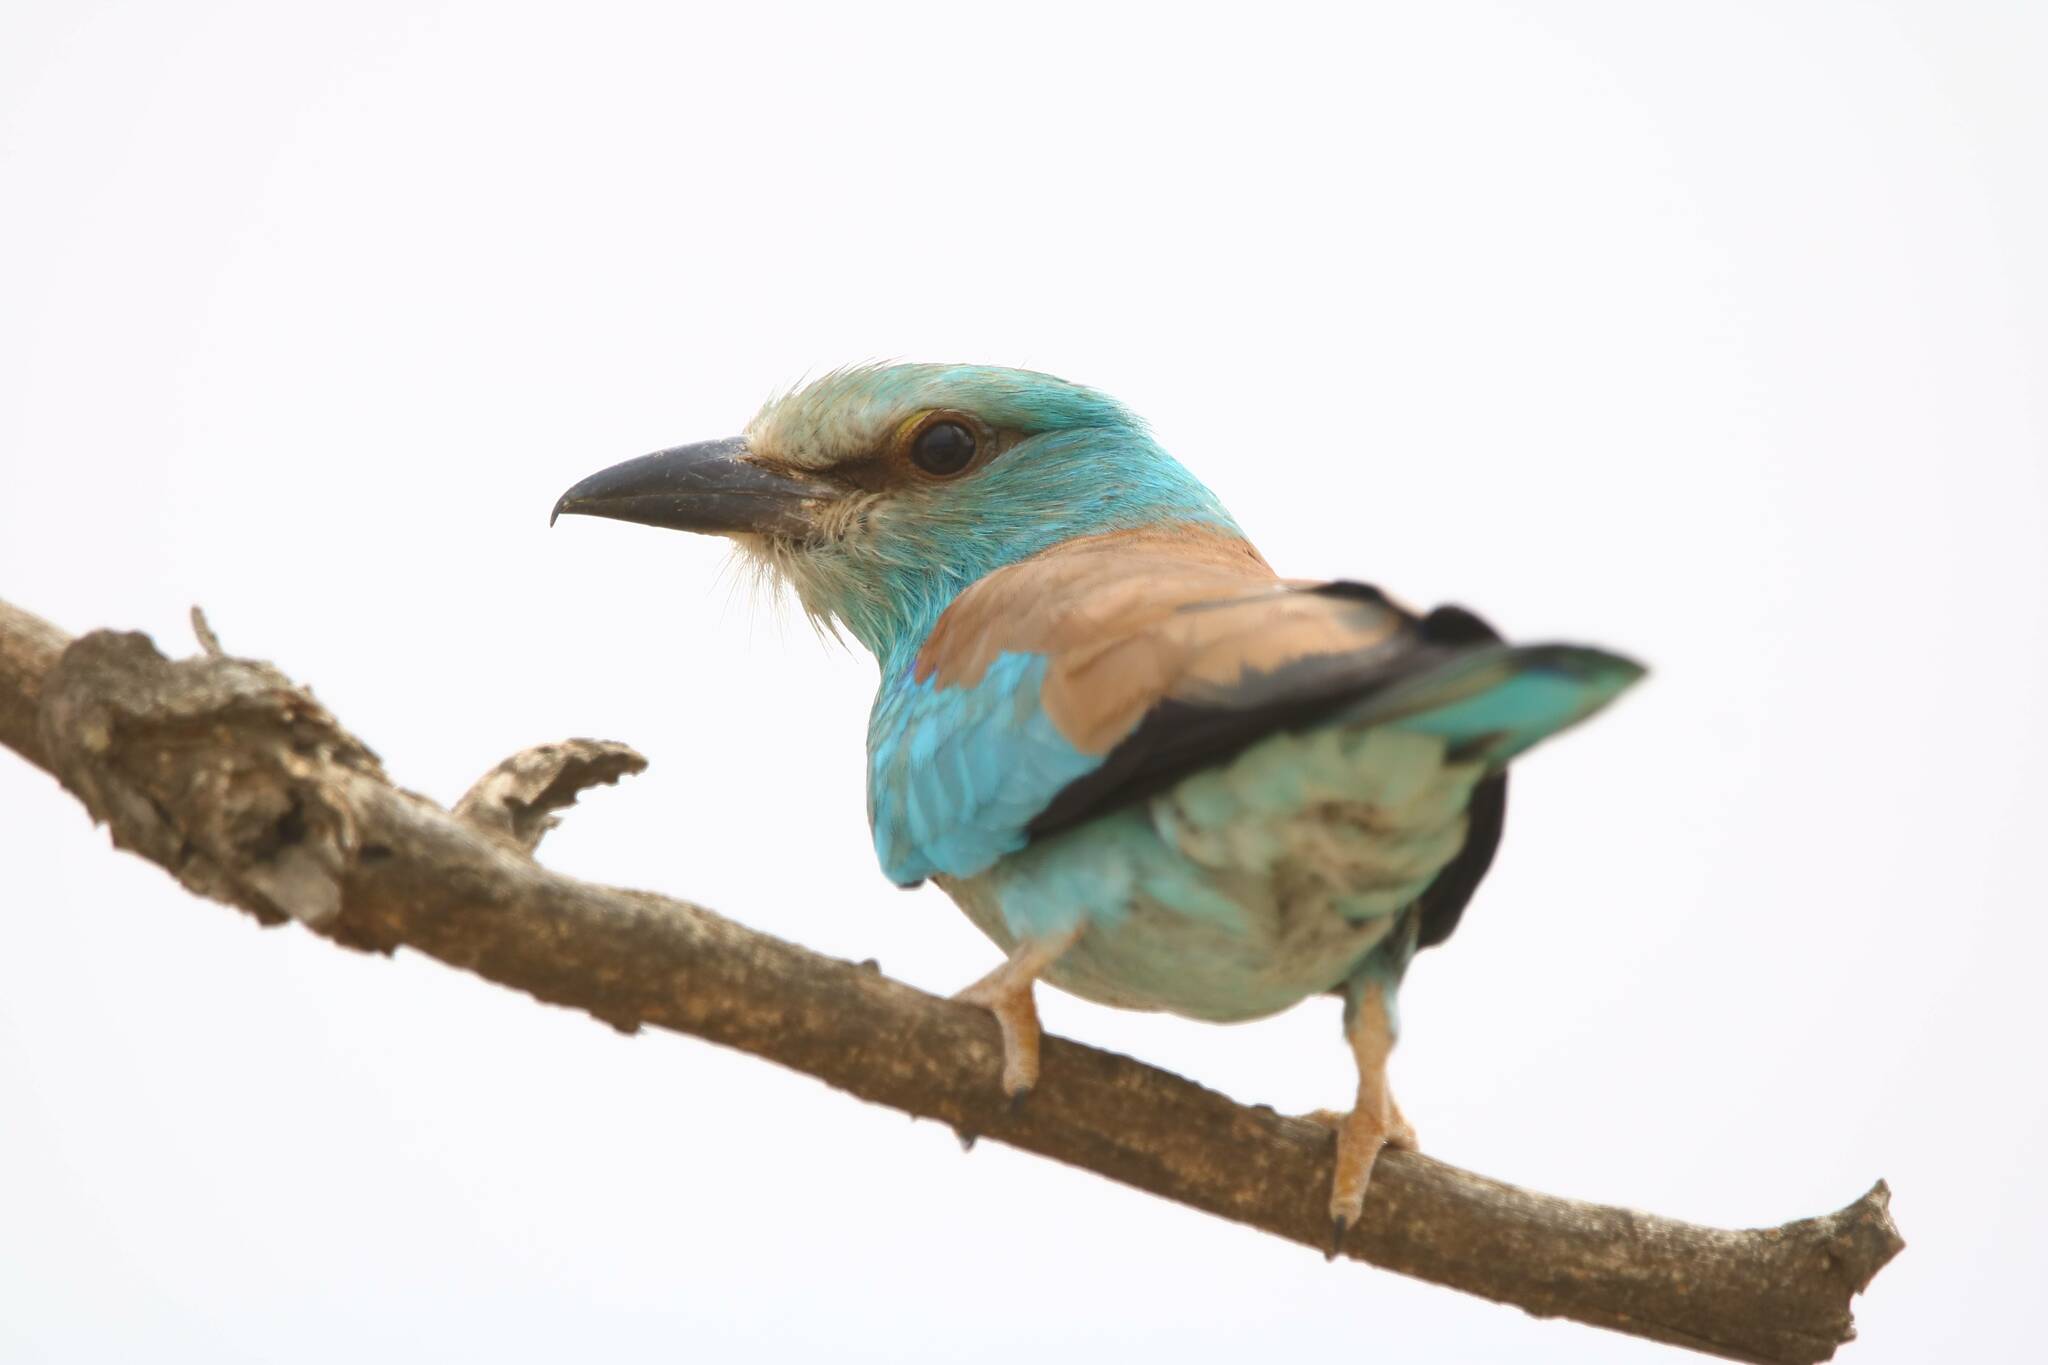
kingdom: Animalia
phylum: Chordata
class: Aves
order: Coraciiformes
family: Coraciidae
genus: Coracias
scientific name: Coracias garrulus
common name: European roller
